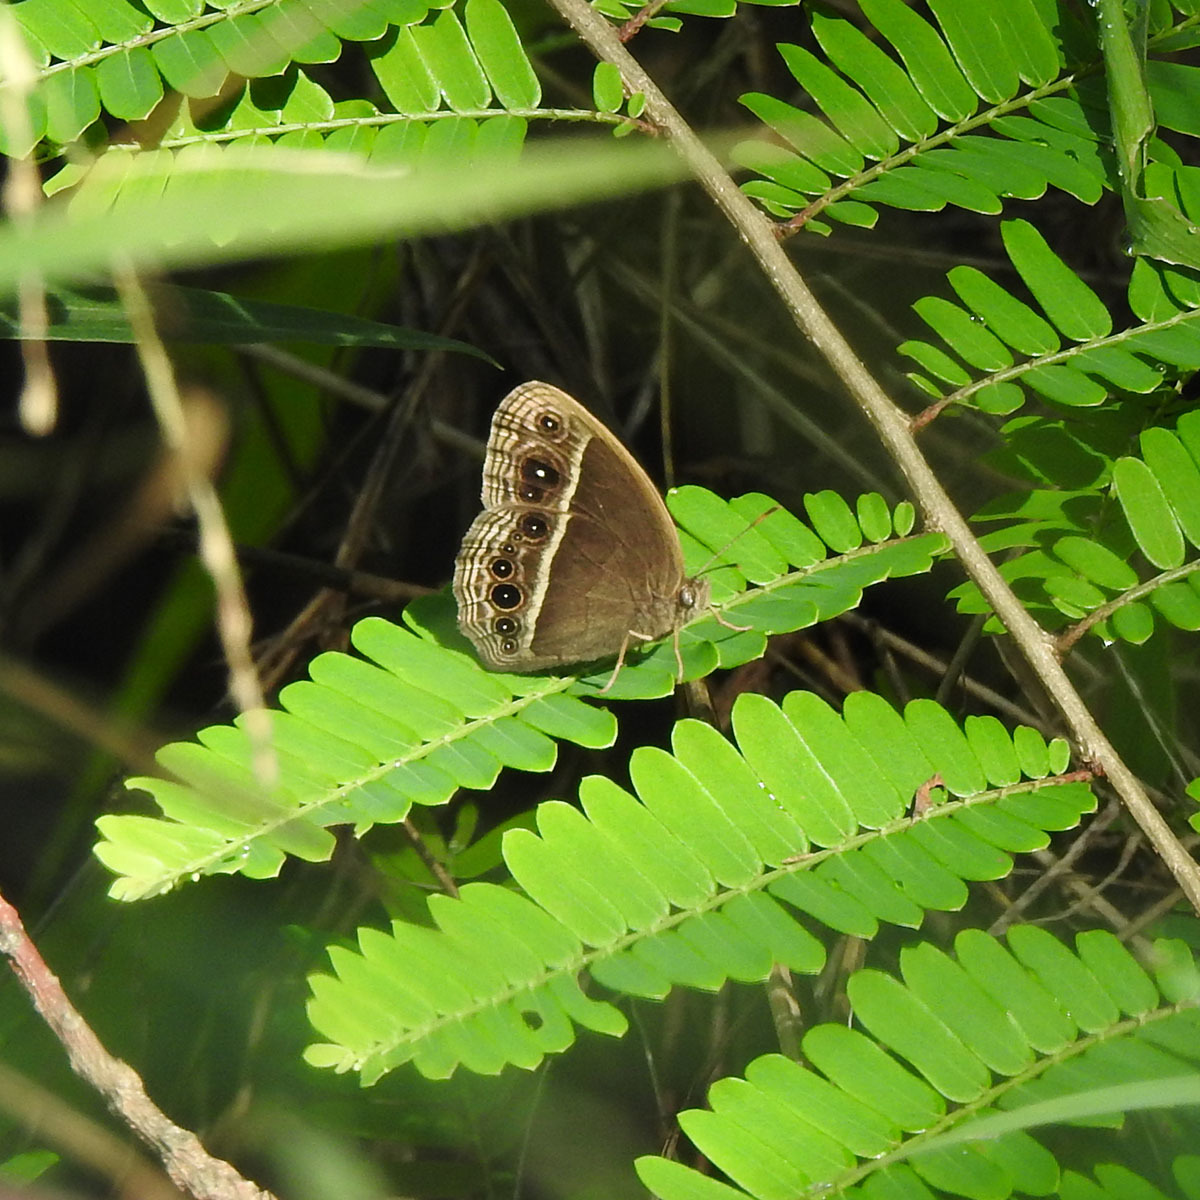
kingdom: Animalia
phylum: Arthropoda
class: Insecta
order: Lepidoptera
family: Nymphalidae
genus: Mycalesis
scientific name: Mycalesis mineus
